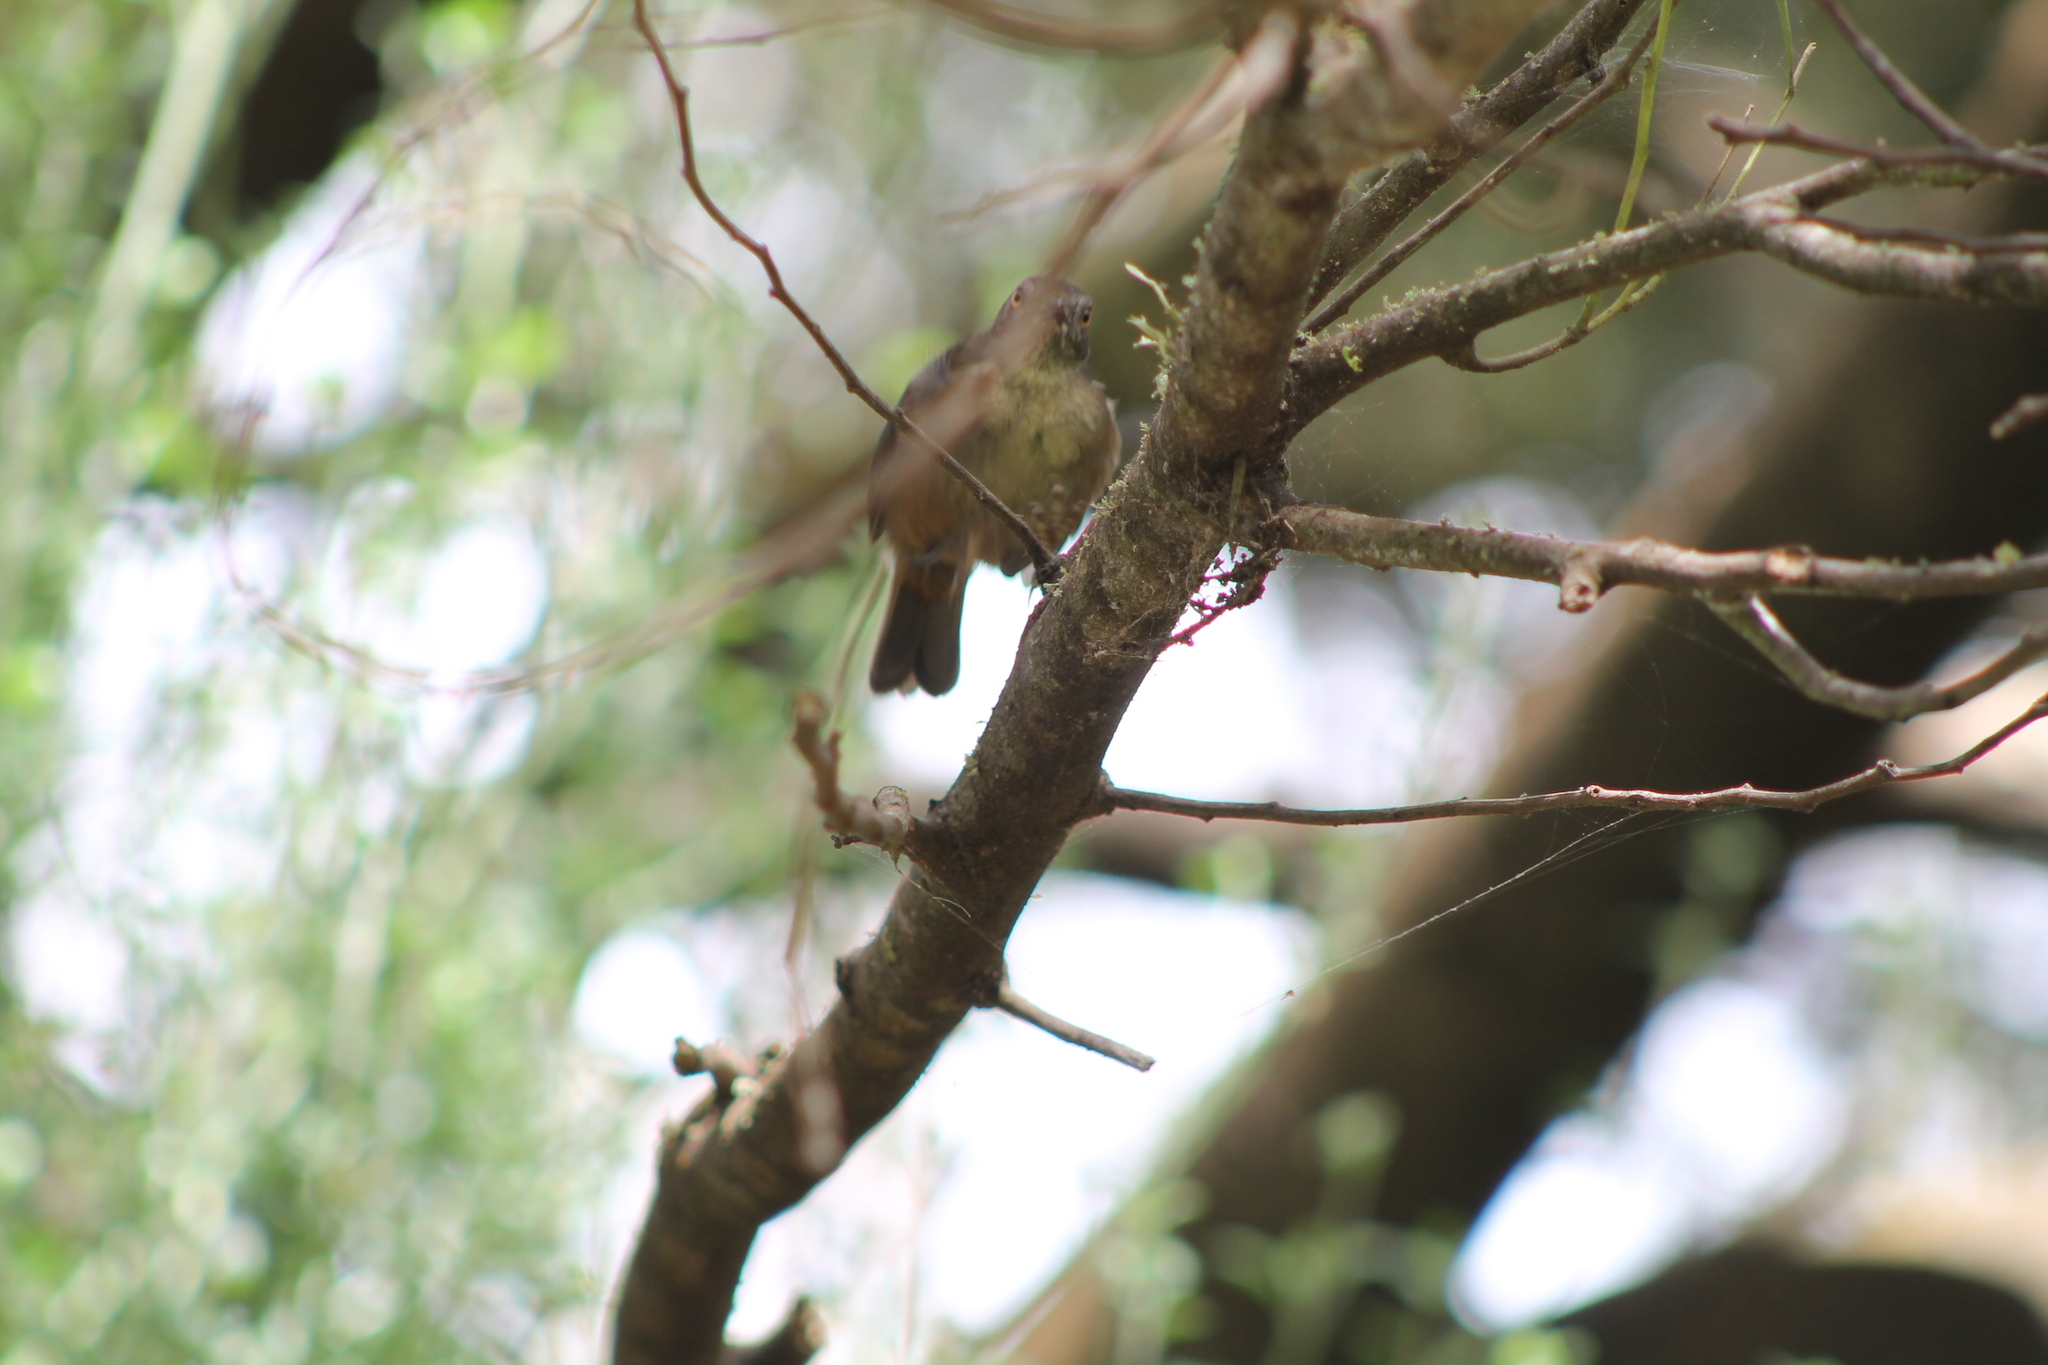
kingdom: Animalia
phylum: Chordata
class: Aves
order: Passeriformes
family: Acanthizidae
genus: Sericornis
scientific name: Sericornis humilis
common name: Tasmanian scrubwren
